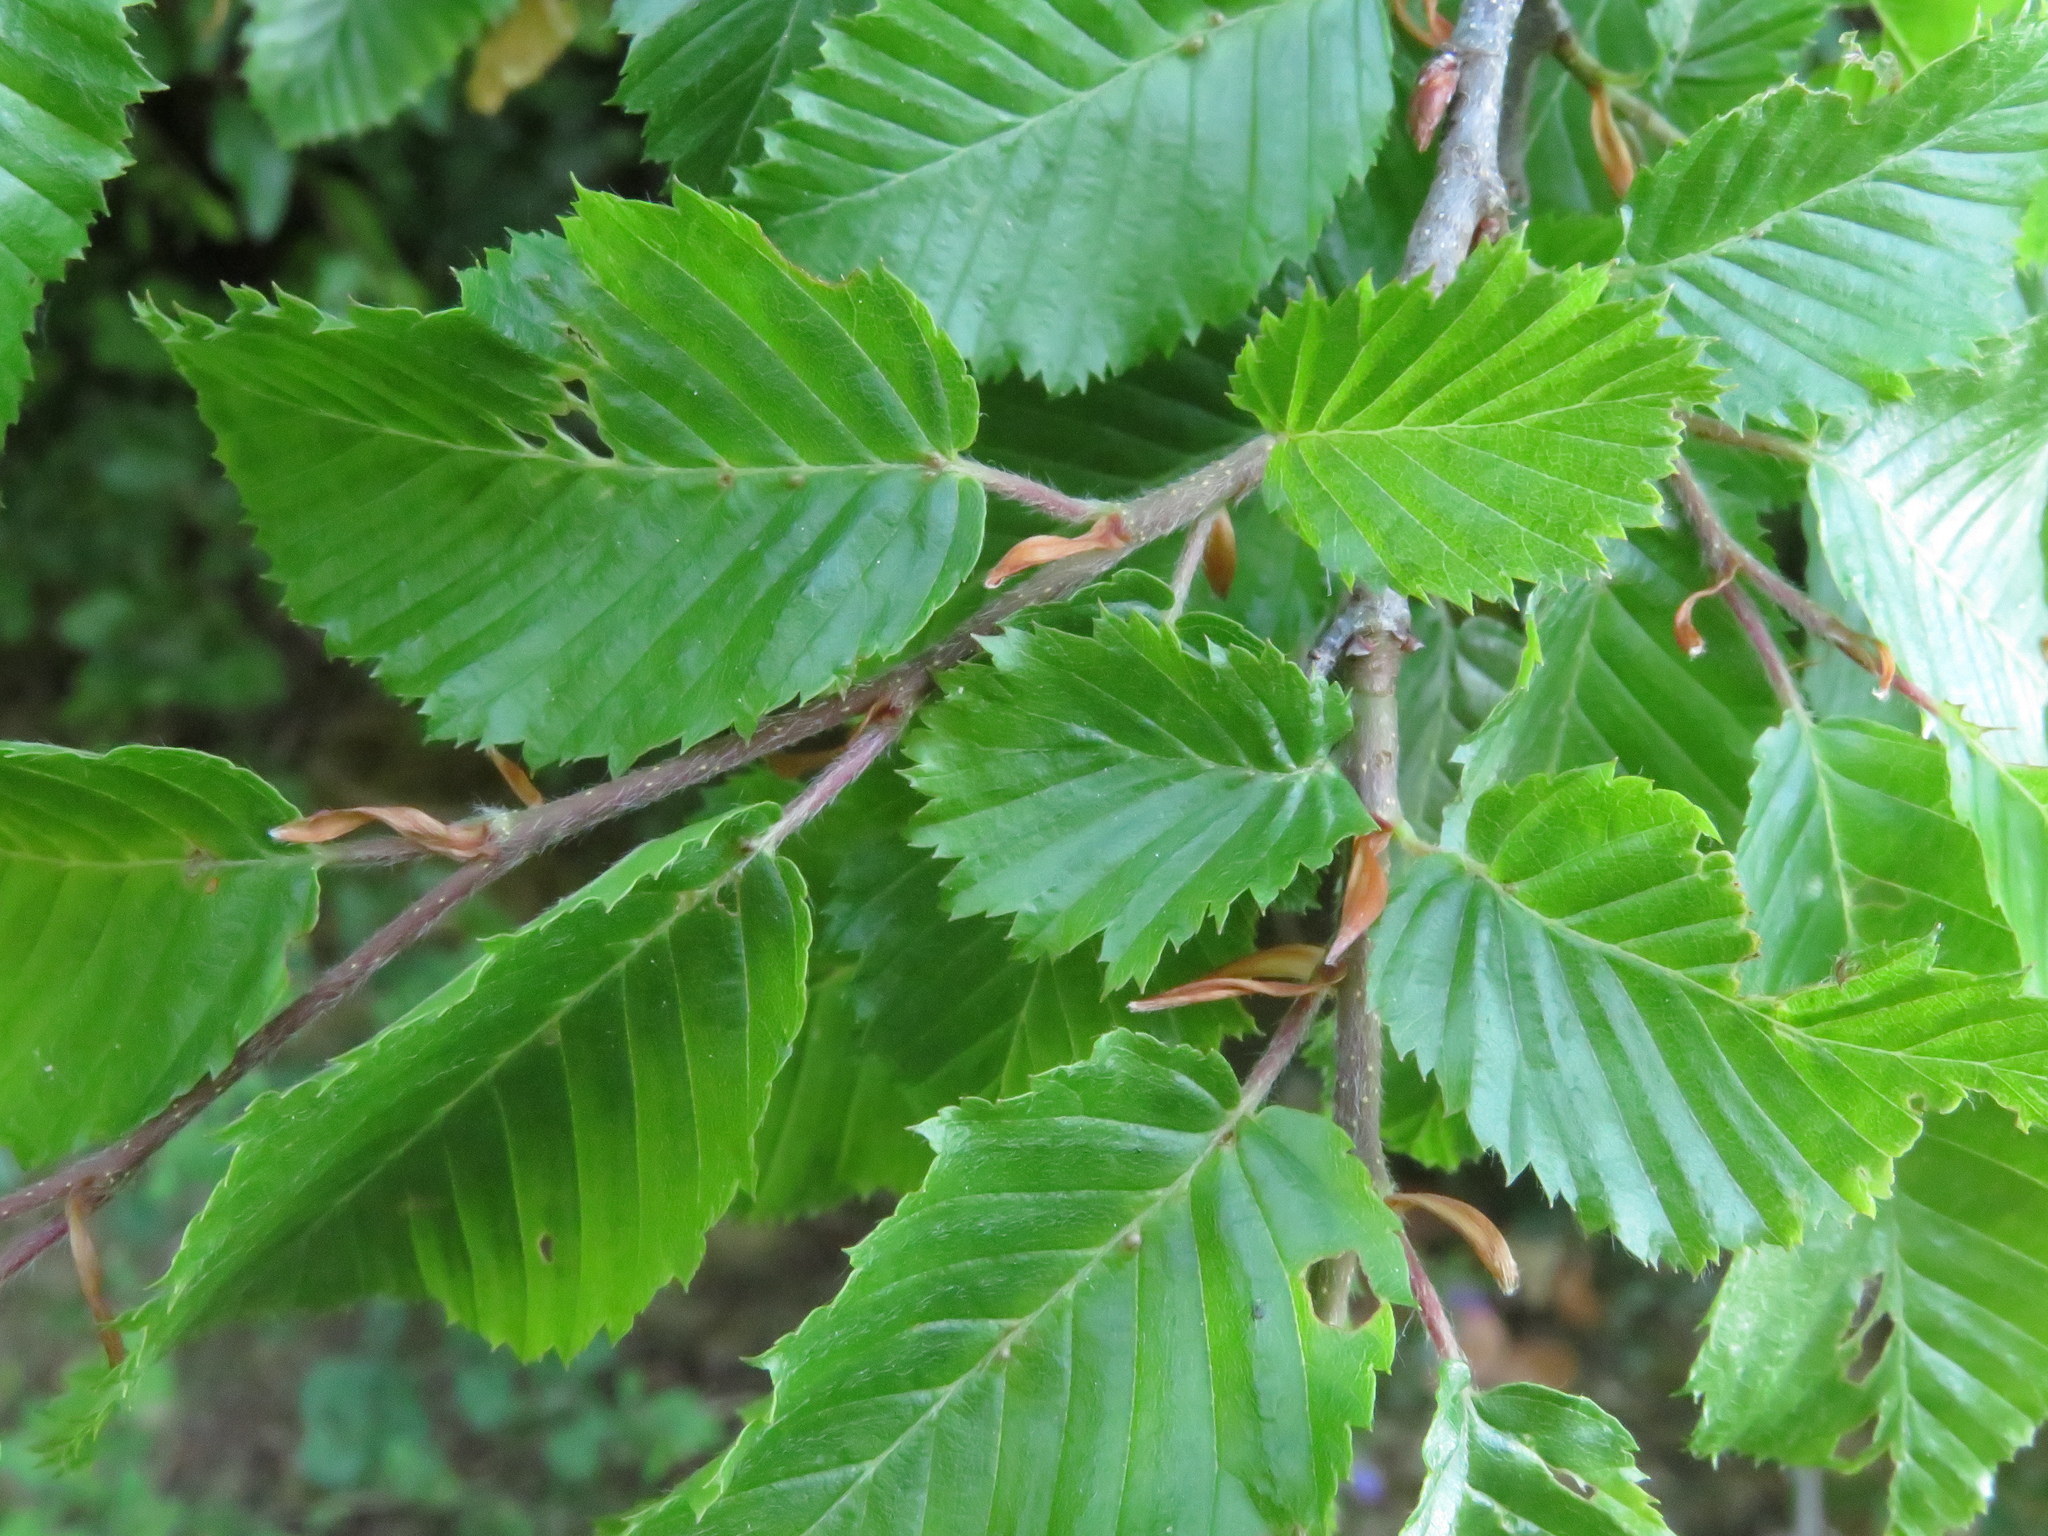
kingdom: Plantae
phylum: Tracheophyta
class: Magnoliopsida
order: Fagales
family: Betulaceae
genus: Carpinus
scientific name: Carpinus orientalis
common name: Eastern hornbeam
